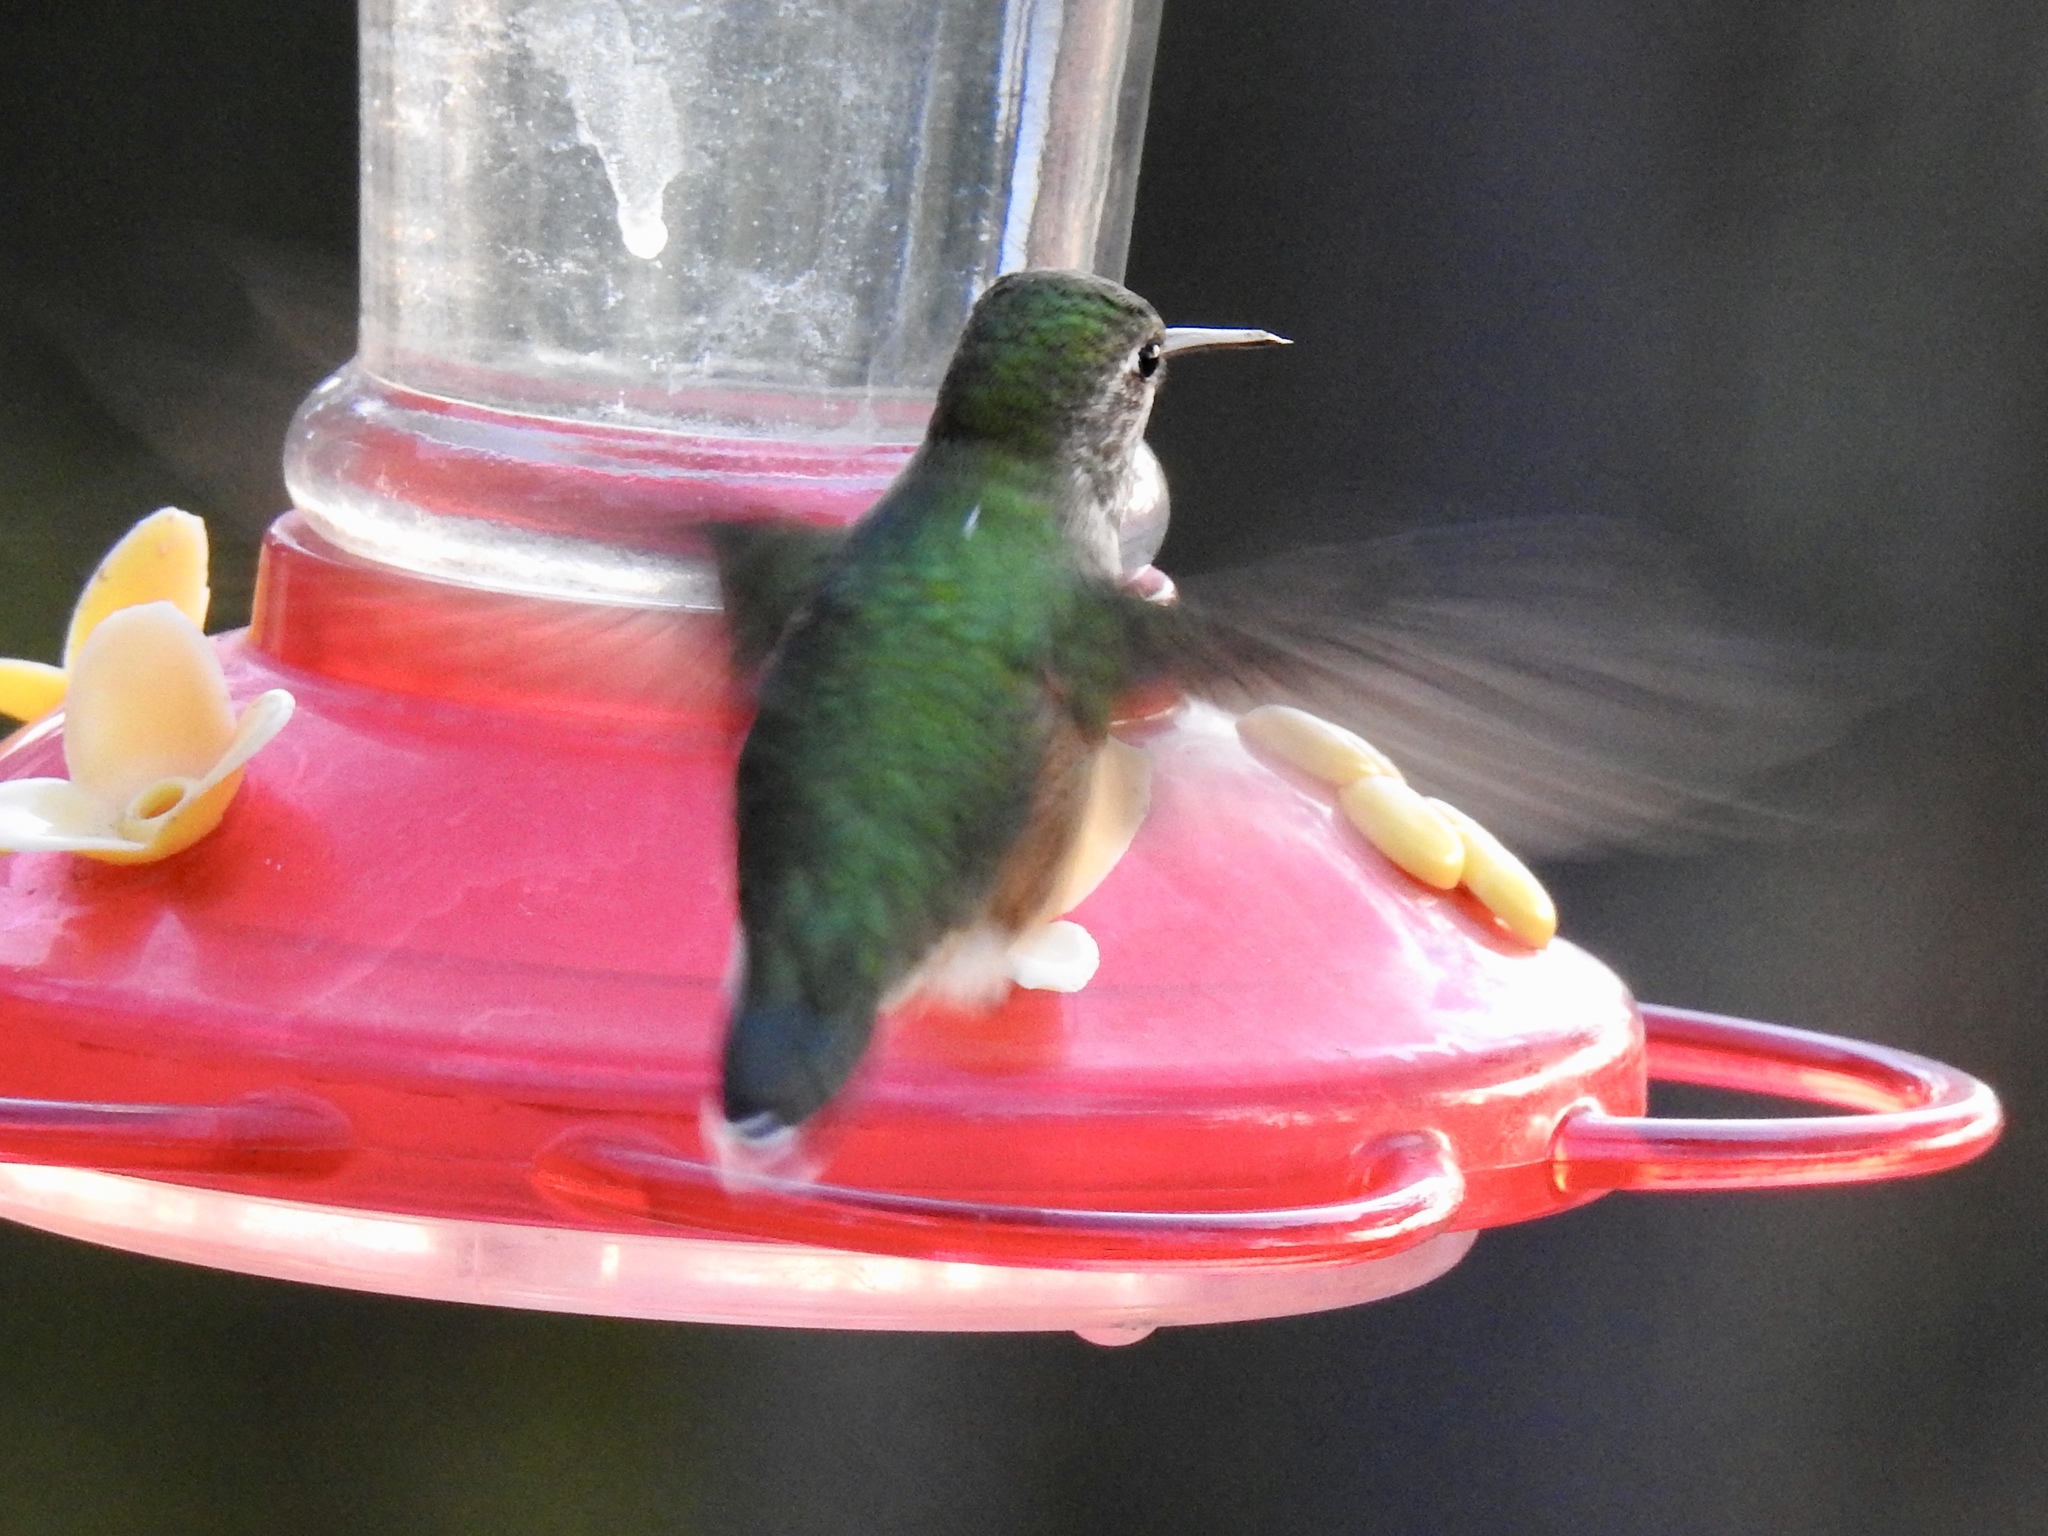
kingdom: Animalia
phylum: Chordata
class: Aves
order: Apodiformes
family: Trochilidae
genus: Selasphorus
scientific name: Selasphorus platycercus
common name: Broad-tailed hummingbird
